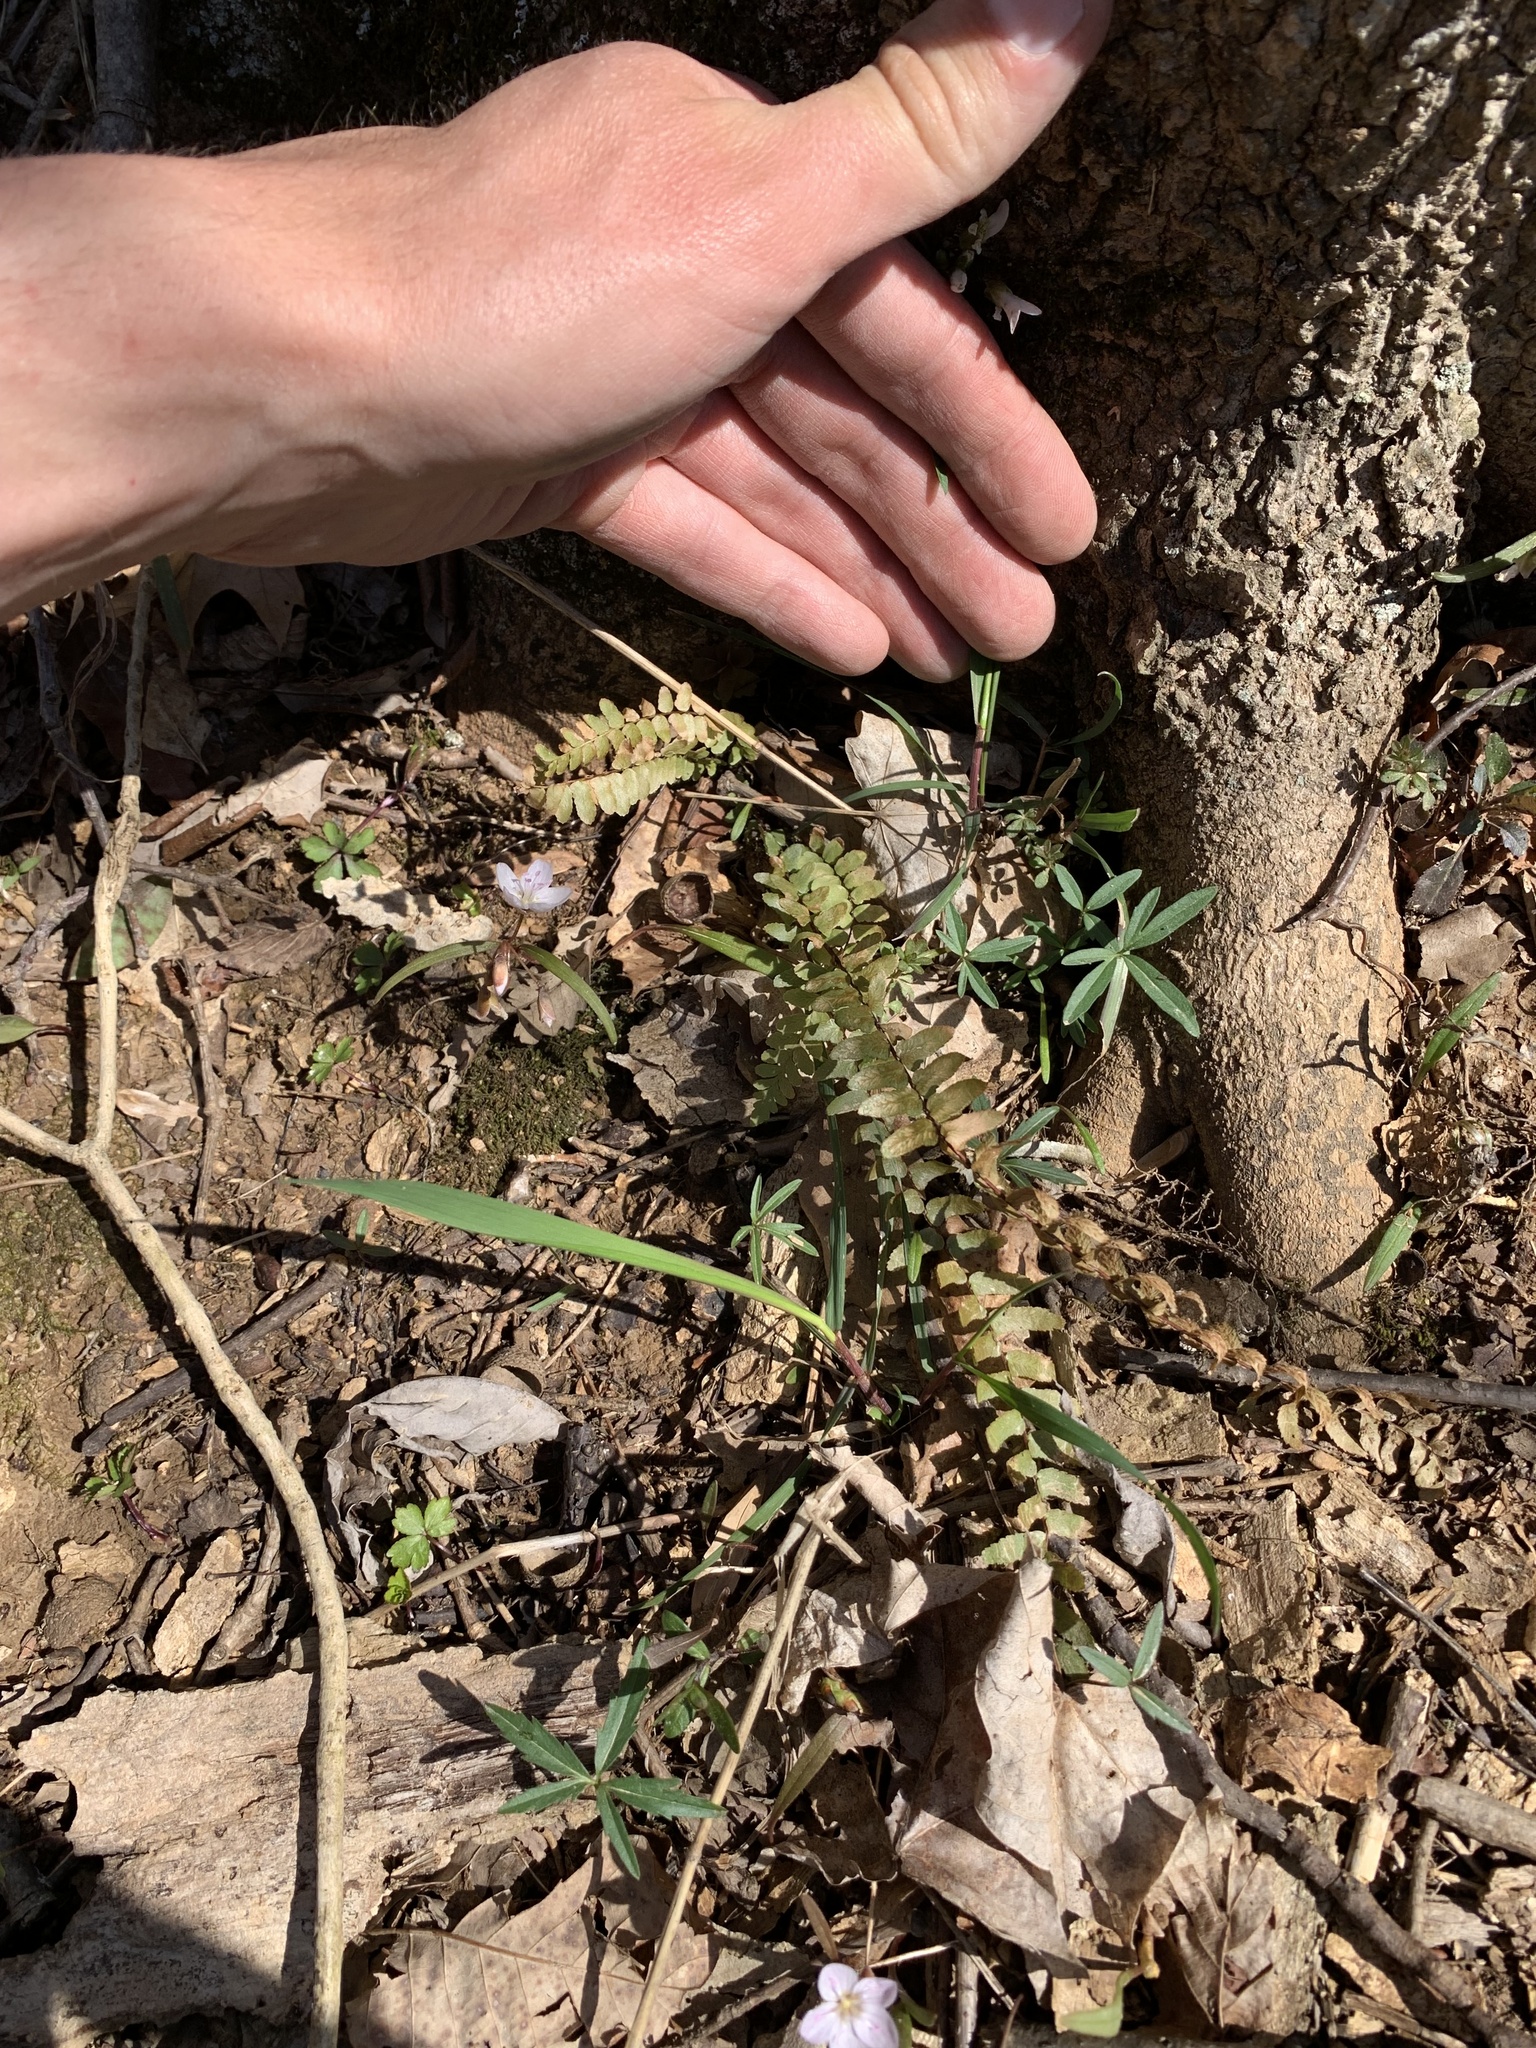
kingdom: Plantae
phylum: Tracheophyta
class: Polypodiopsida
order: Polypodiales
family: Aspleniaceae
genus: Asplenium
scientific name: Asplenium platyneuron
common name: Ebony spleenwort
